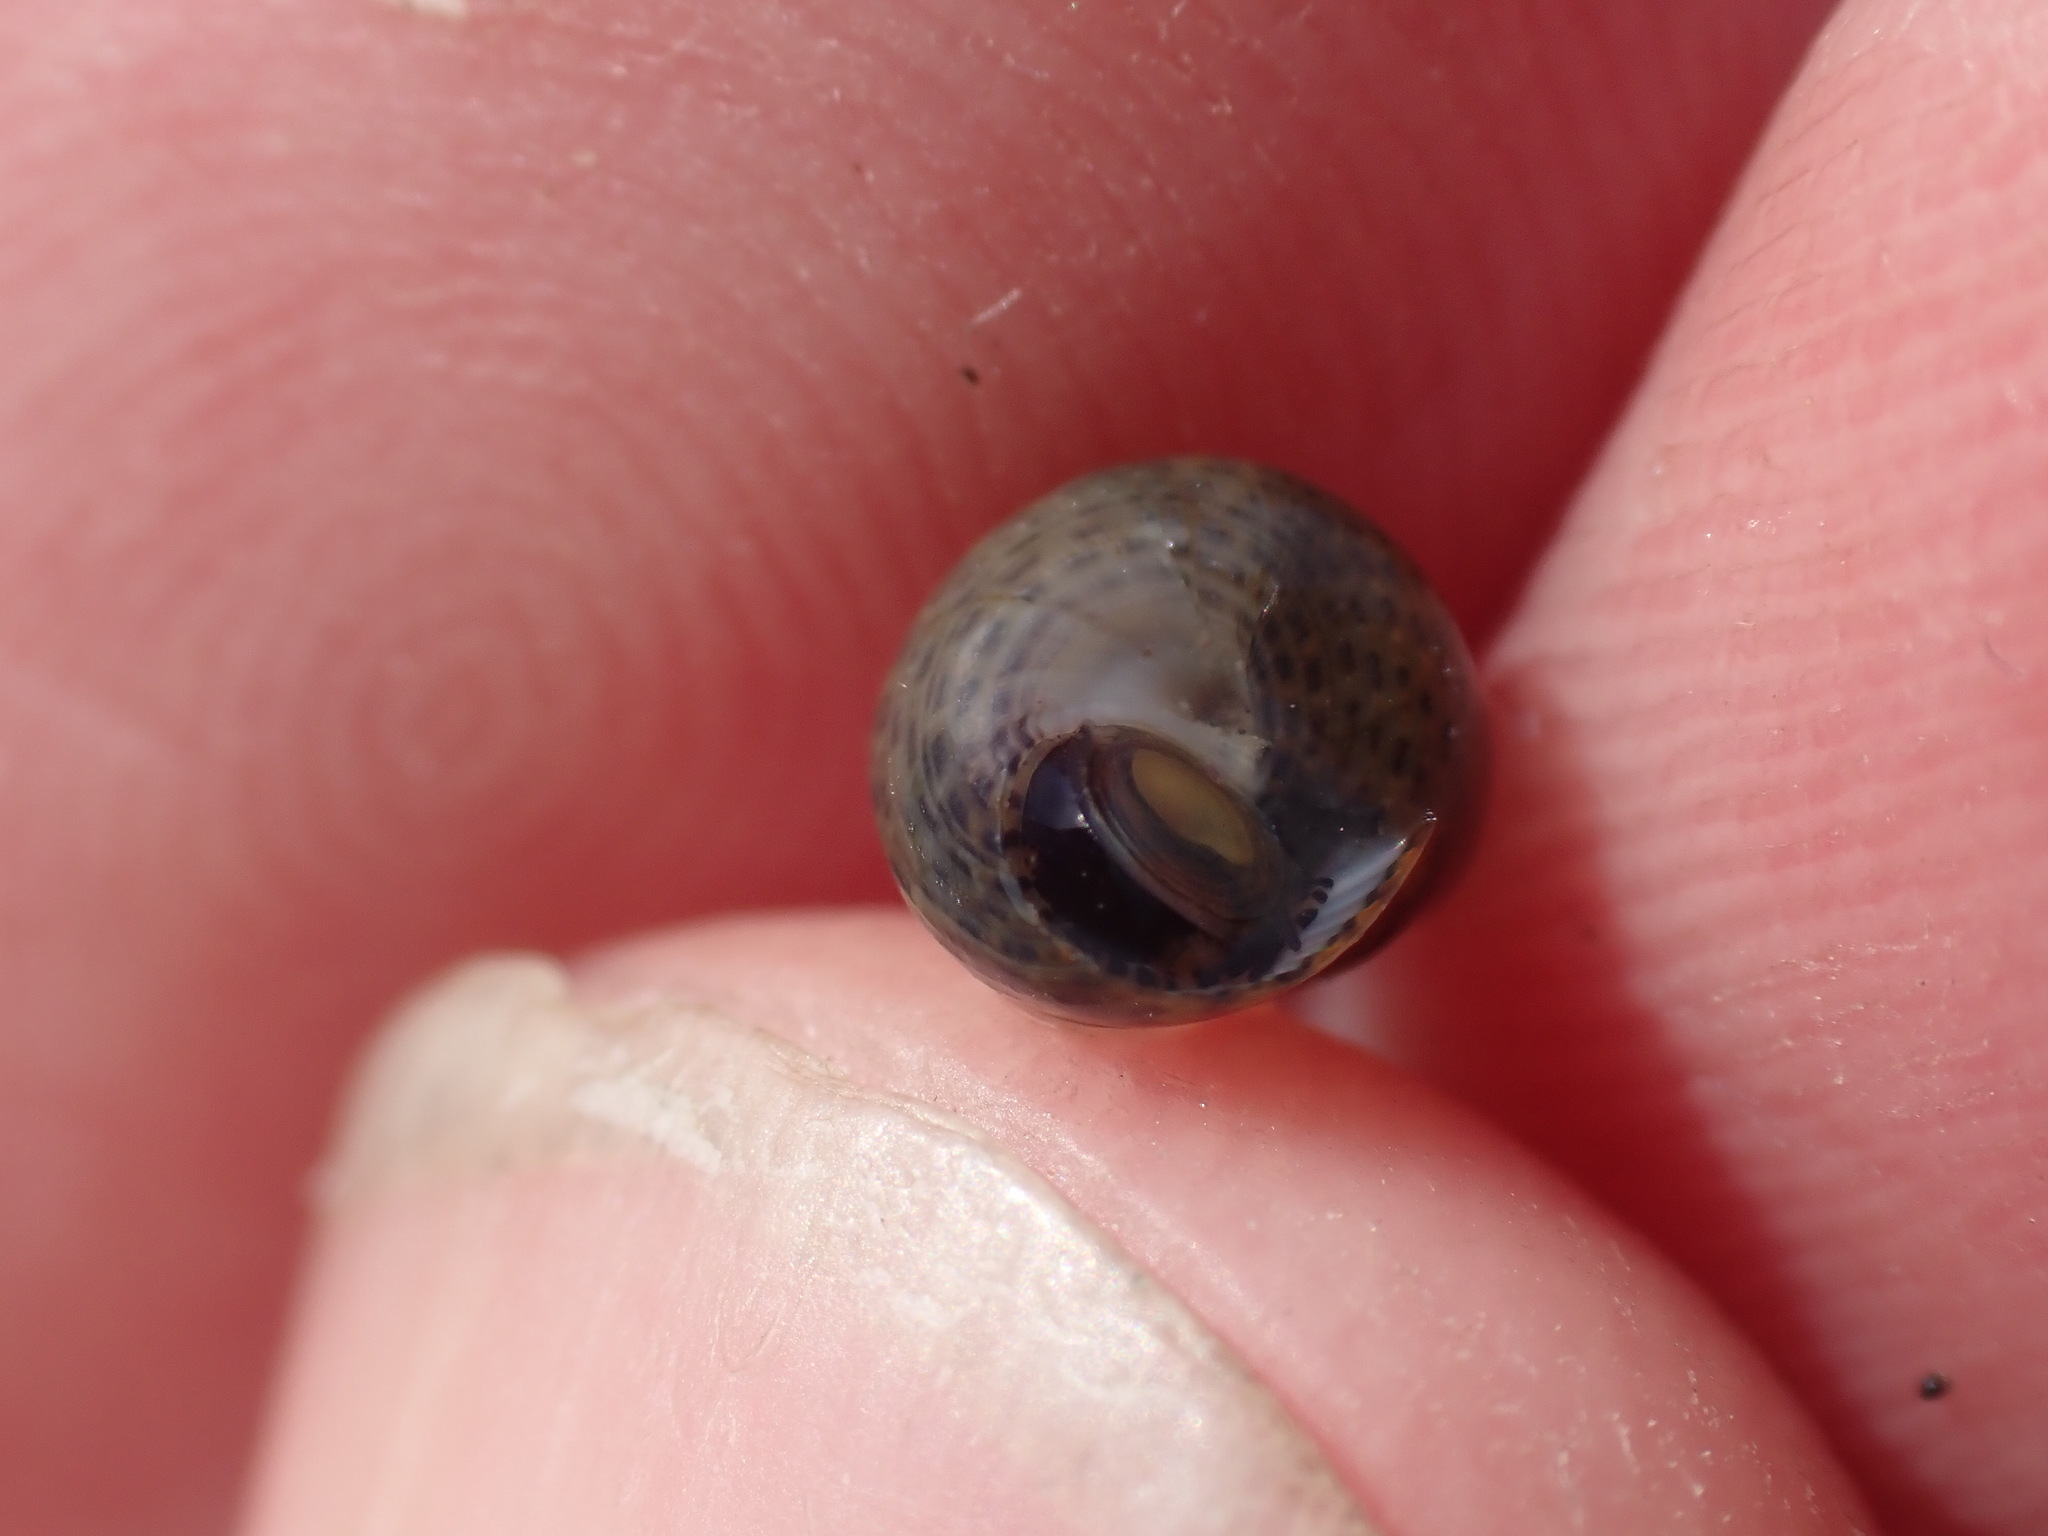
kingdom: Animalia
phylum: Mollusca
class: Gastropoda
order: Trochida
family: Trochidae
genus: Micrelenchus
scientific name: Micrelenchus tessellatus
